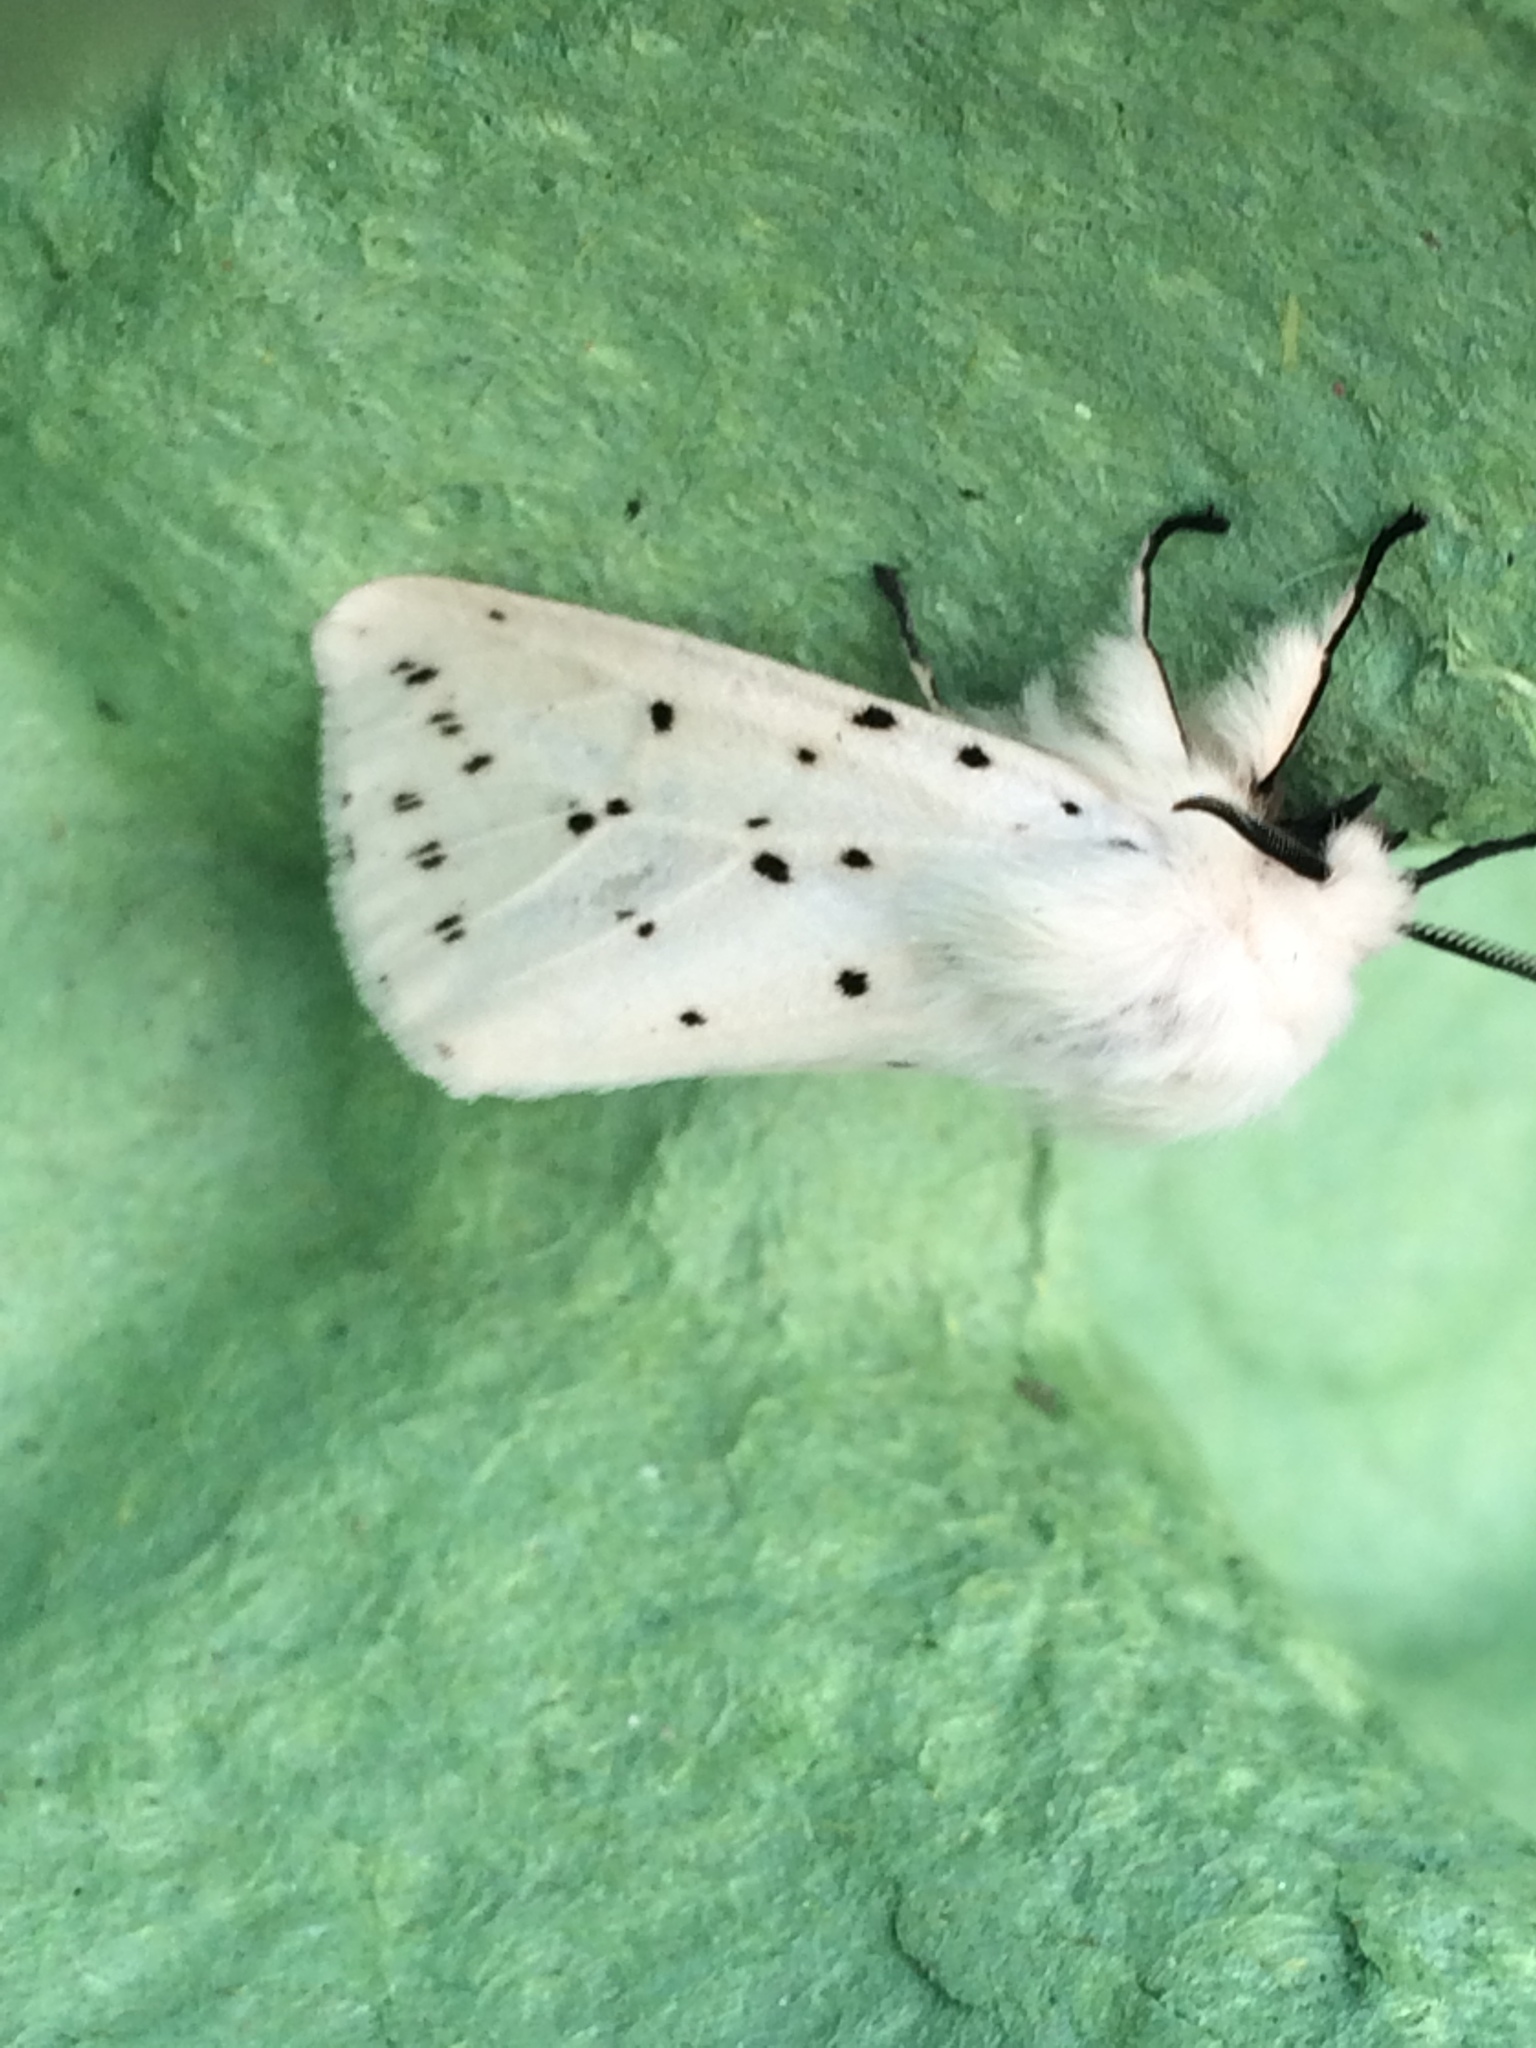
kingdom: Animalia
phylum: Arthropoda
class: Insecta
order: Lepidoptera
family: Erebidae
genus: Spilosoma
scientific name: Spilosoma lubricipeda
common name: White ermine
